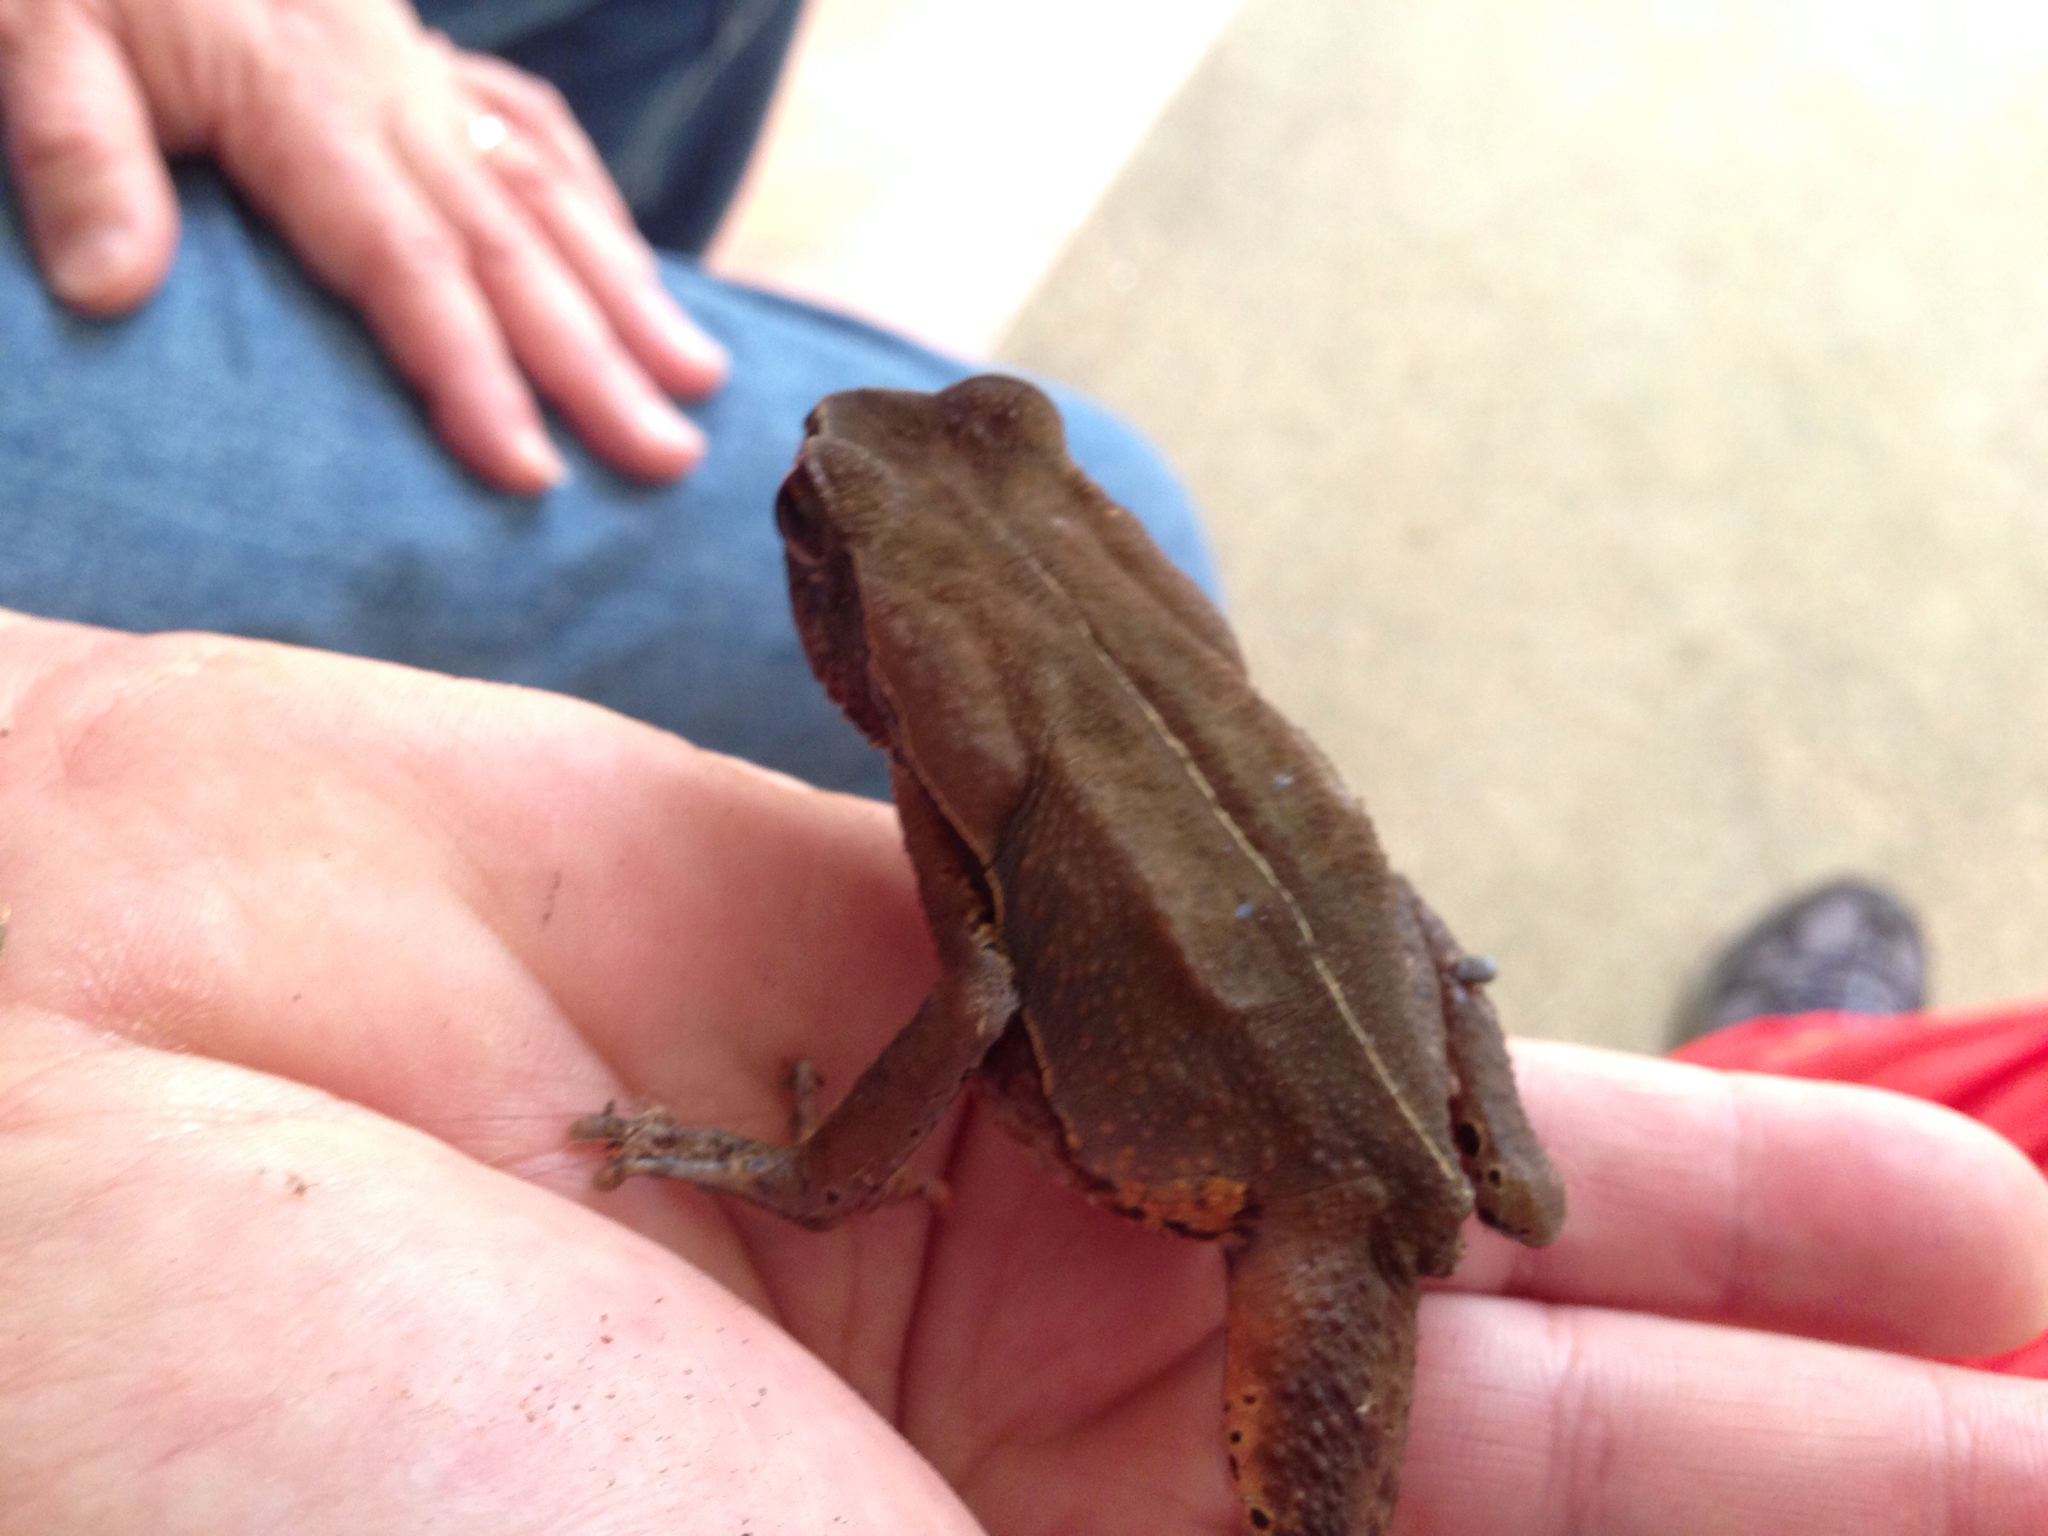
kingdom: Animalia
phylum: Chordata
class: Amphibia
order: Anura
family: Bufonidae
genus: Rhaebo
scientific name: Rhaebo haematiticus
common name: Truando toad
